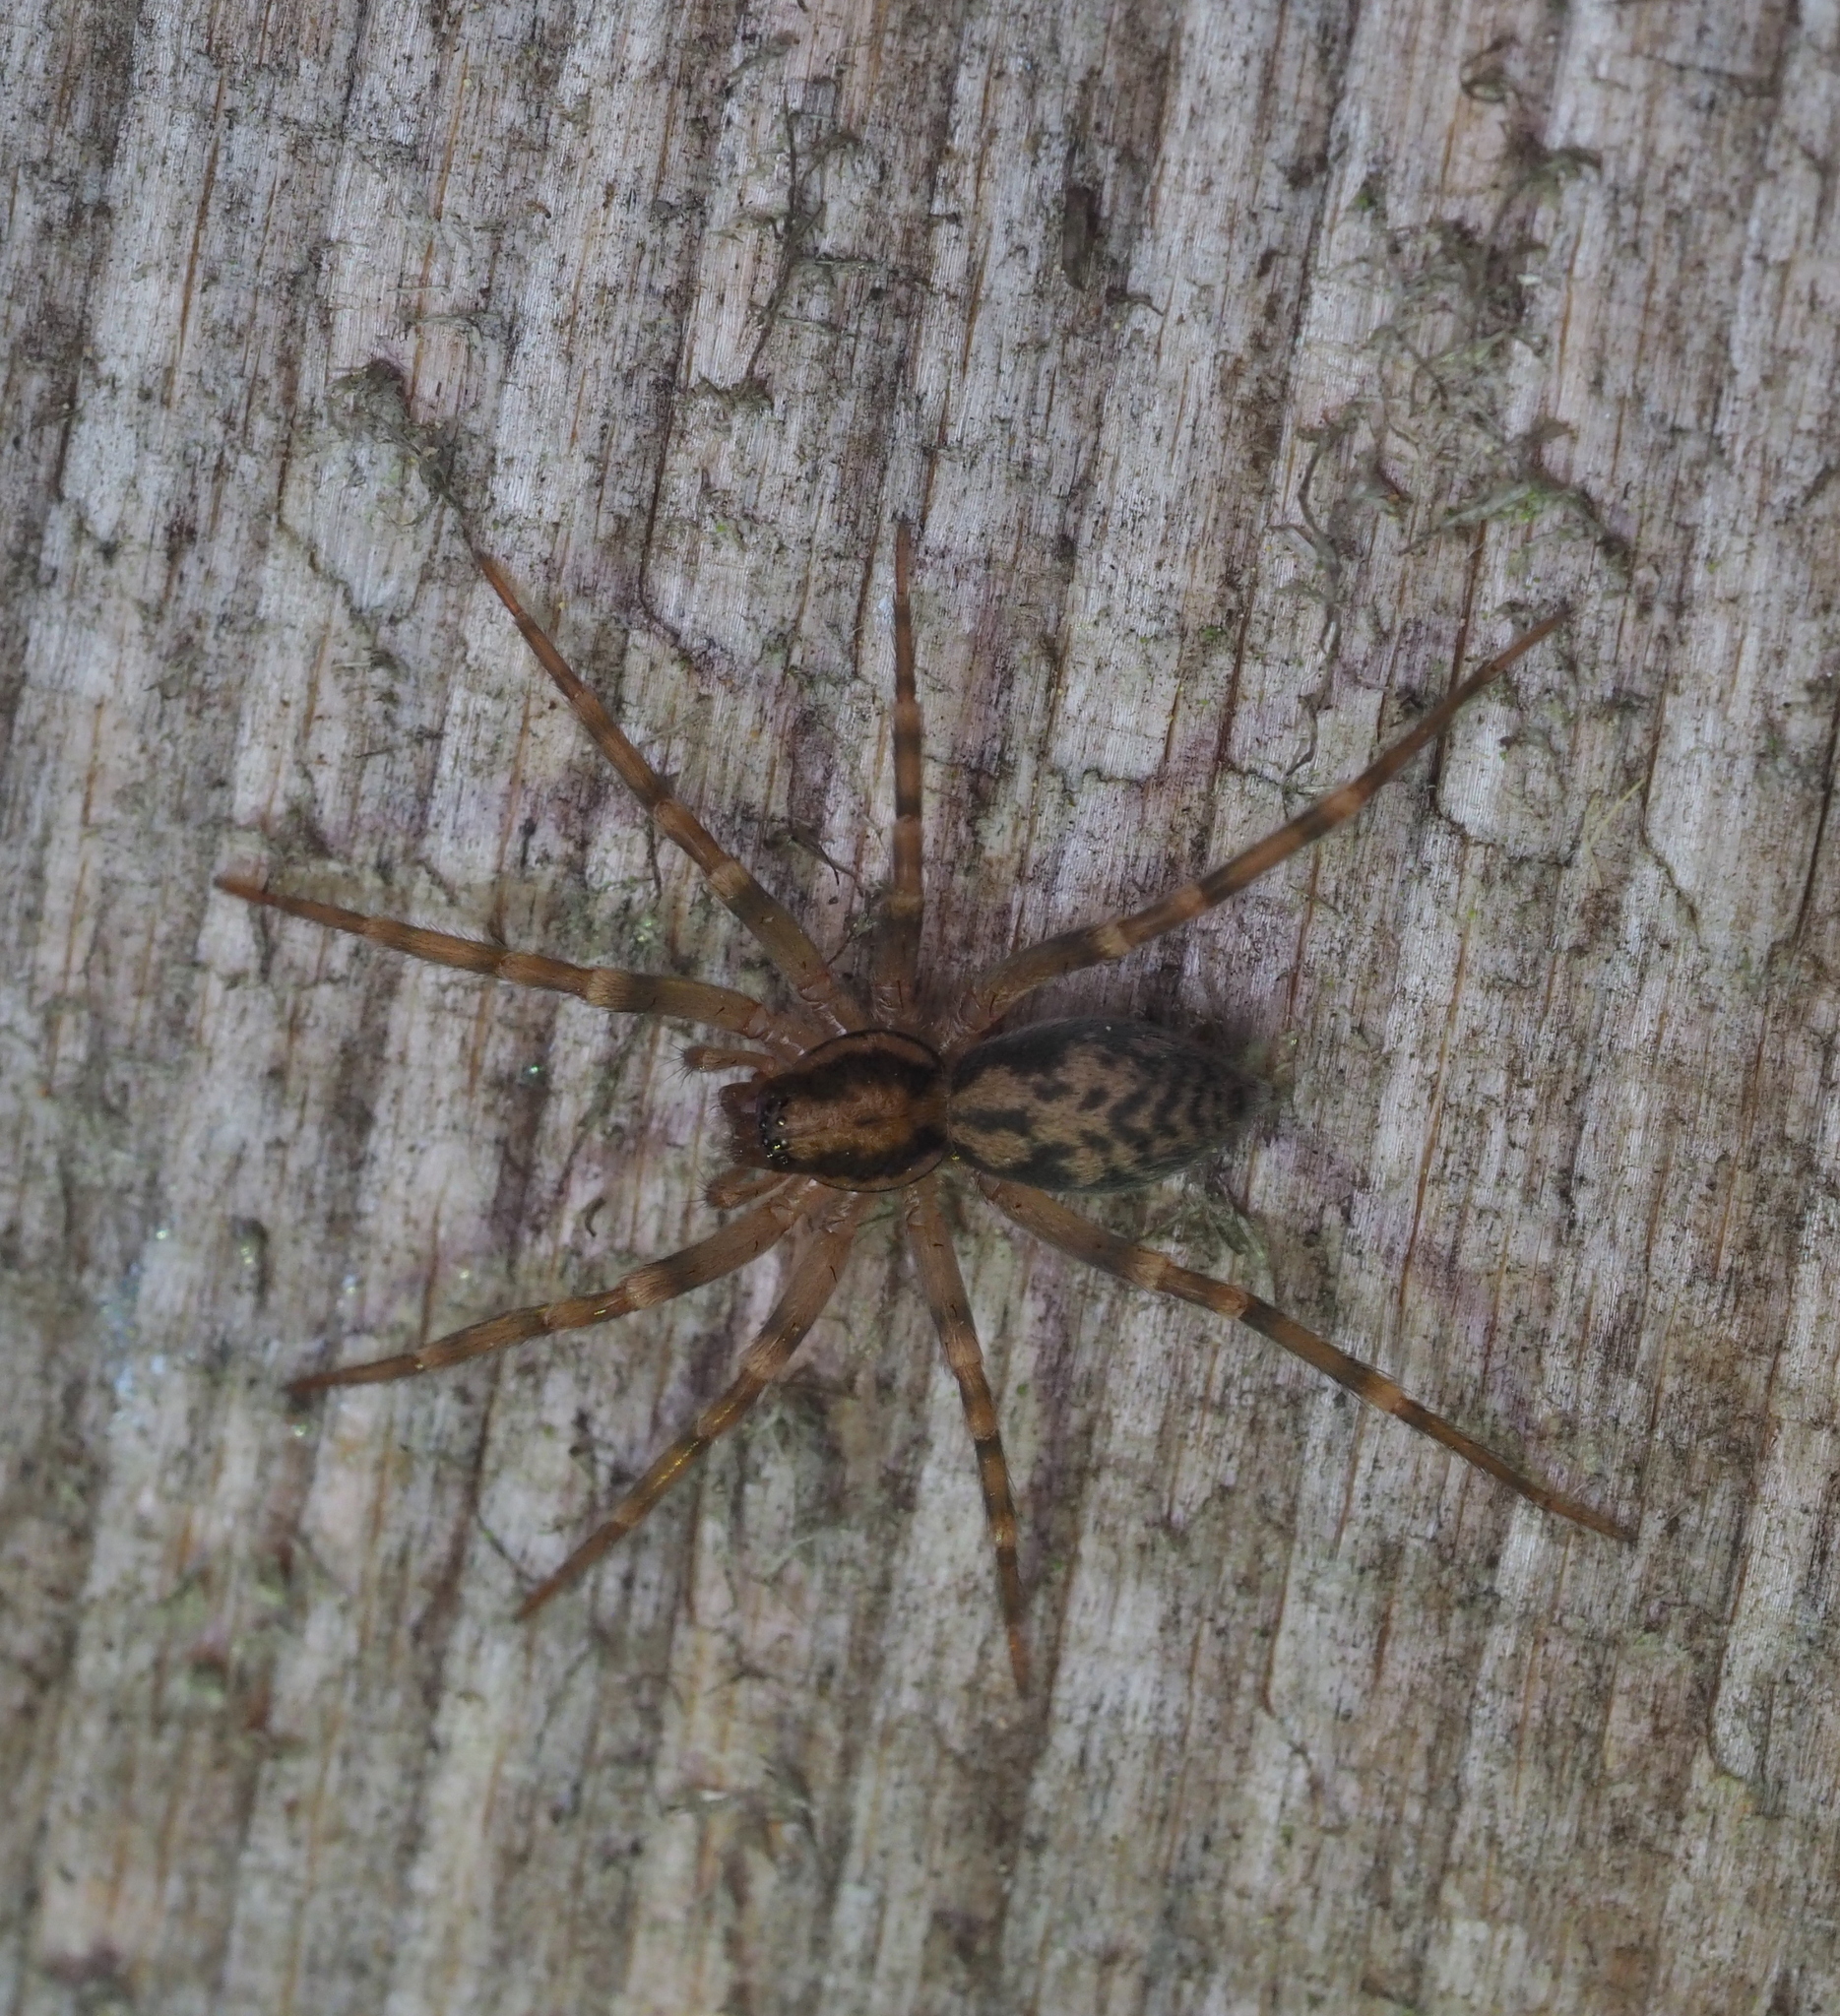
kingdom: Animalia
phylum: Arthropoda
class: Arachnida
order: Araneae
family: Liocranidae
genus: Liocranum
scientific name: Liocranum rupicola
